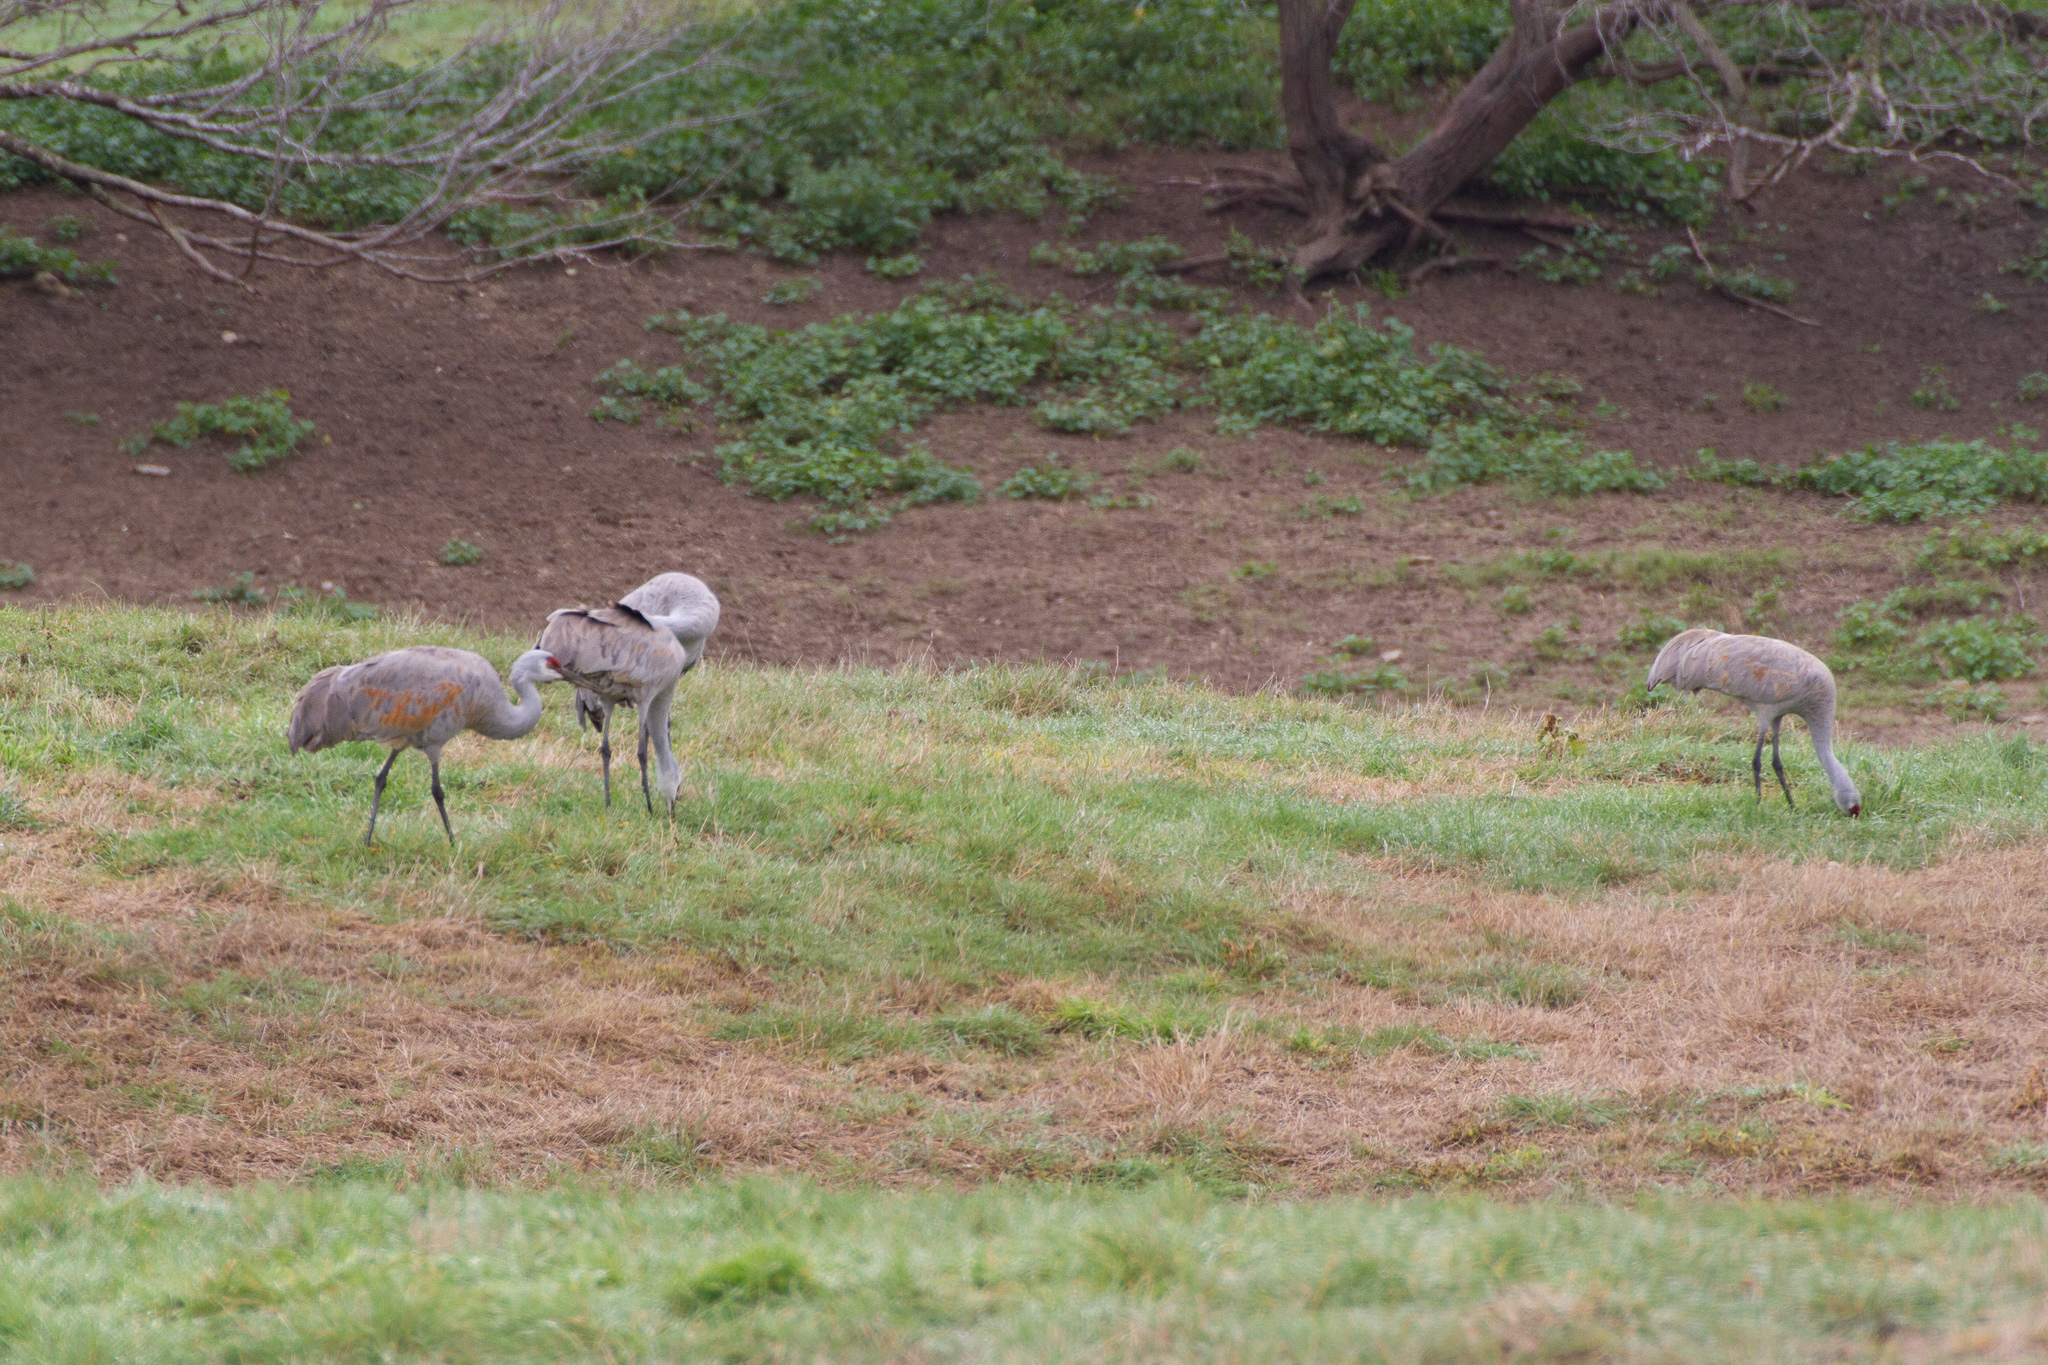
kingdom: Animalia
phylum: Chordata
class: Aves
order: Gruiformes
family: Gruidae
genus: Grus
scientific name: Grus canadensis
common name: Sandhill crane
